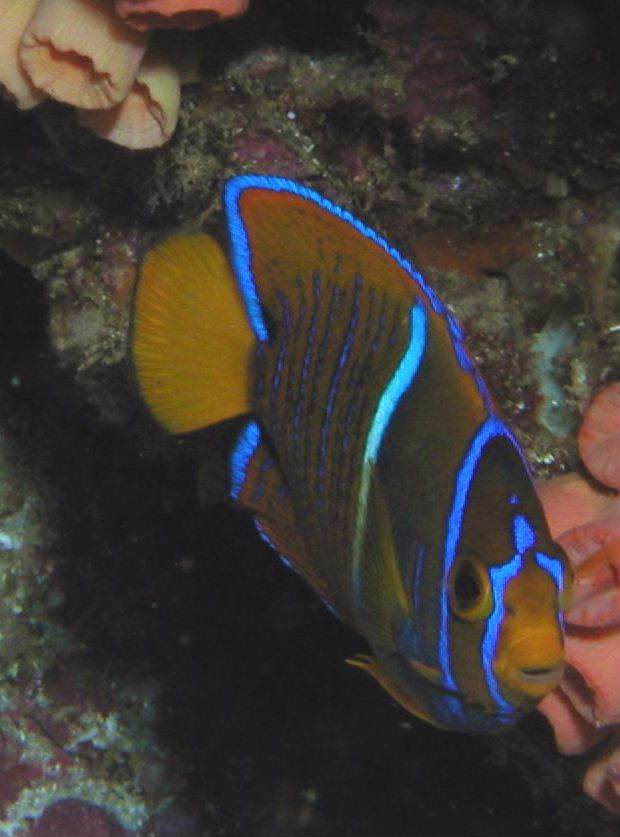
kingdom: Animalia
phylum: Chordata
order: Perciformes
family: Pomacanthidae
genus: Holacanthus
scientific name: Holacanthus passer
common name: King angelfish
